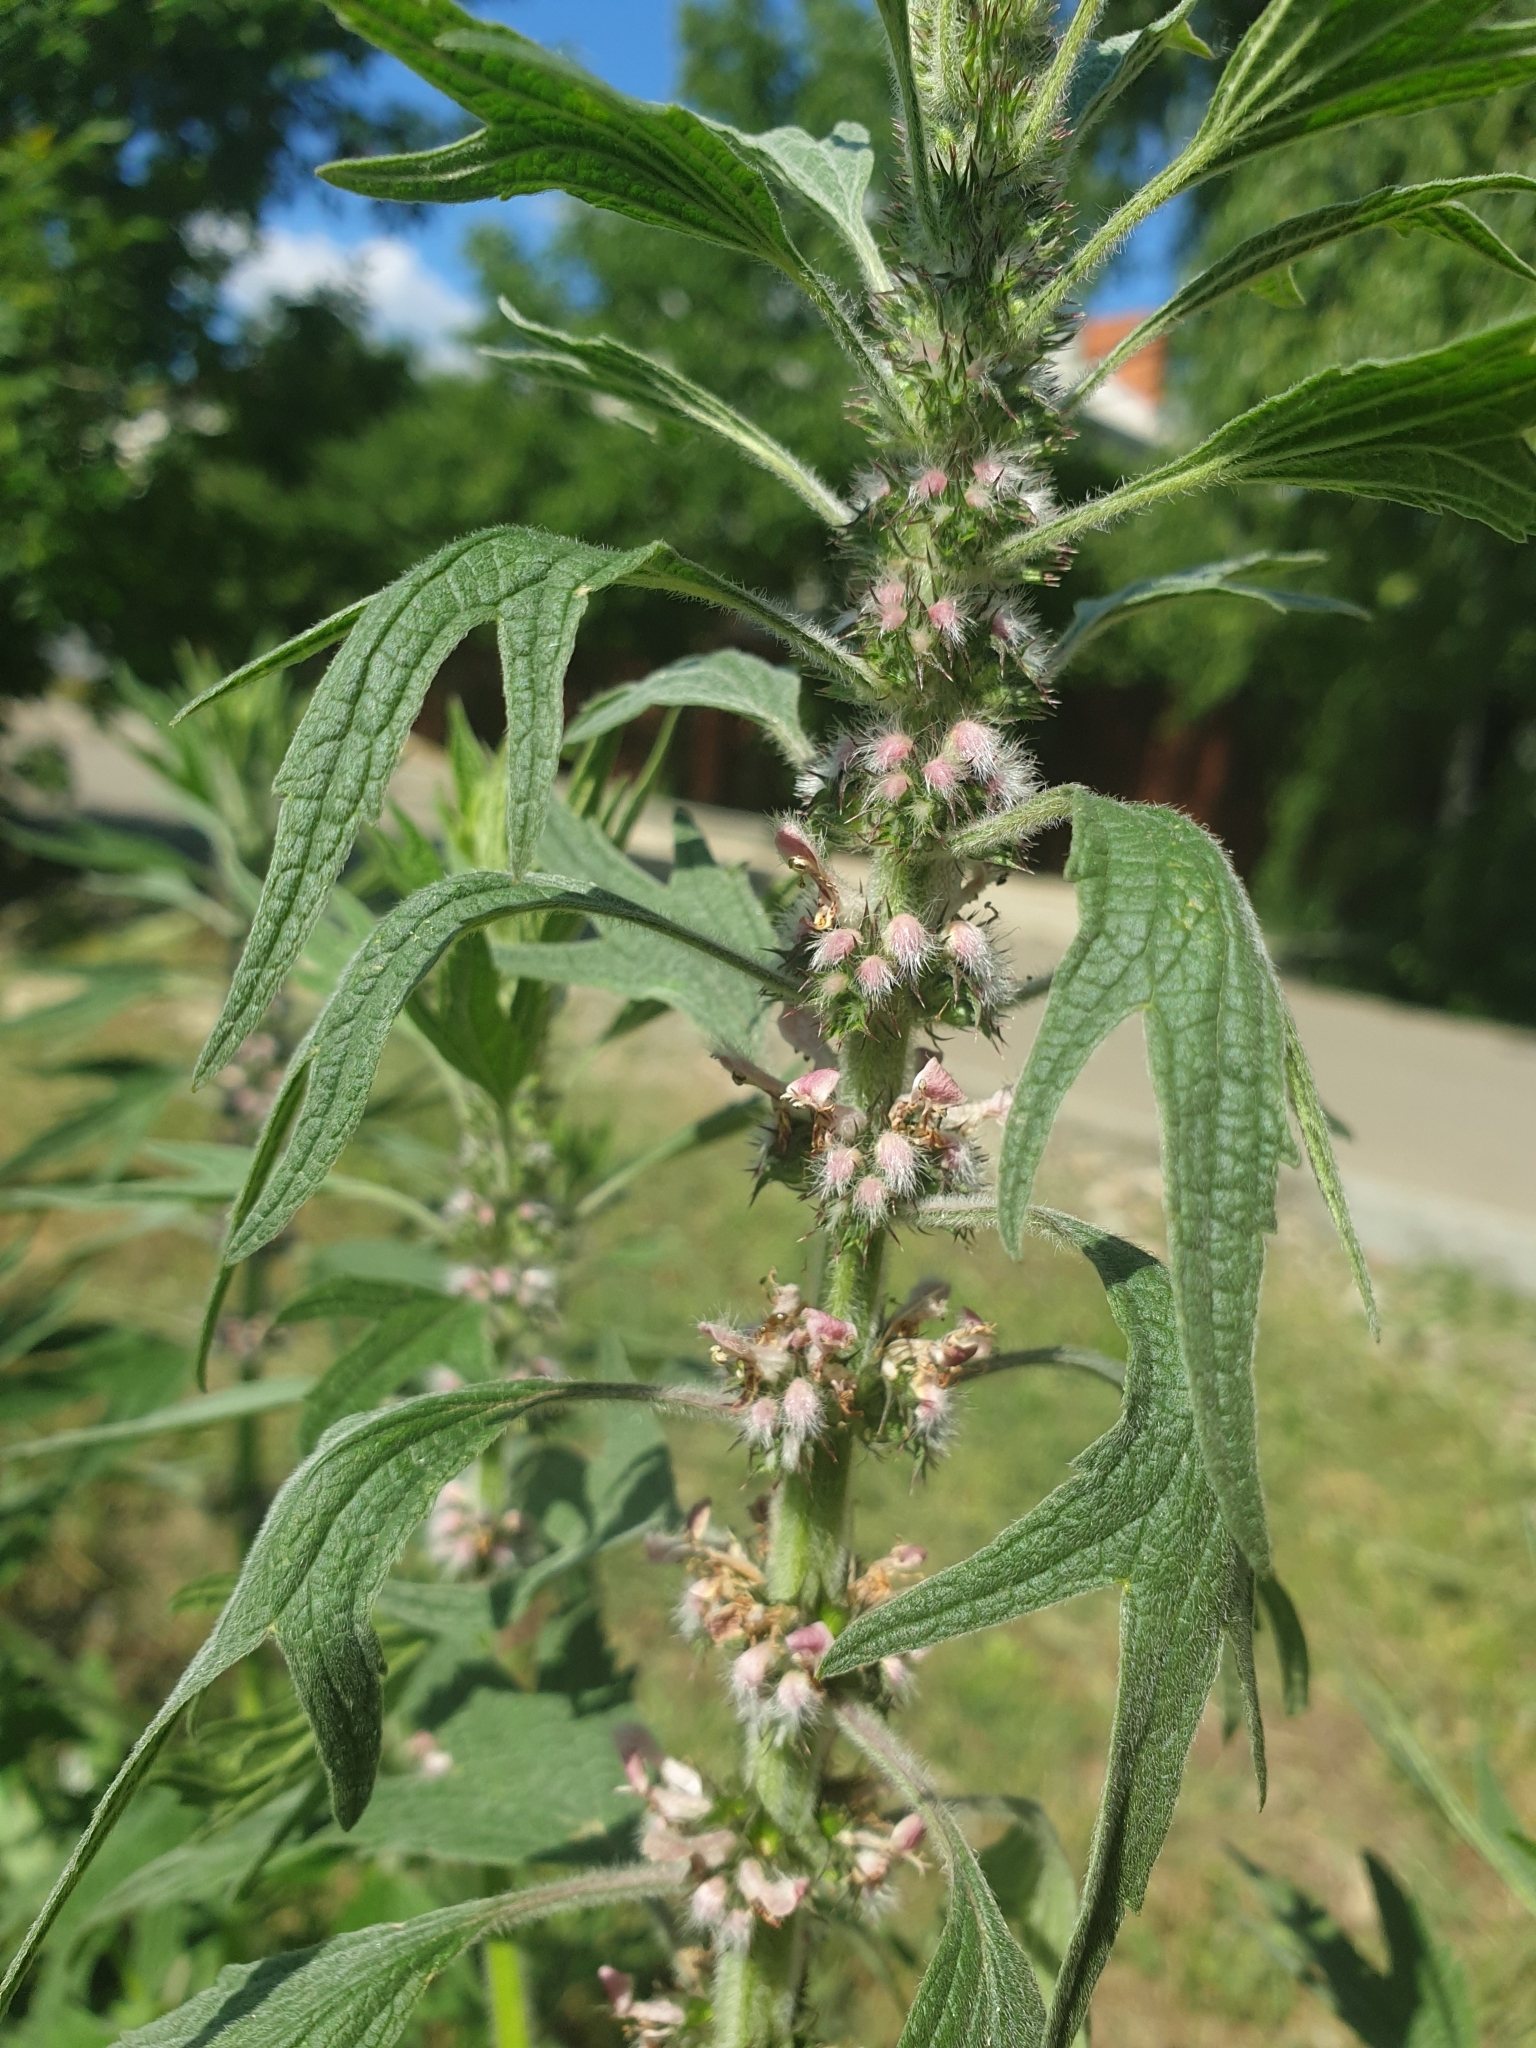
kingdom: Plantae
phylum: Tracheophyta
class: Magnoliopsida
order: Lamiales
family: Lamiaceae
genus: Leonurus
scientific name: Leonurus quinquelobatus
